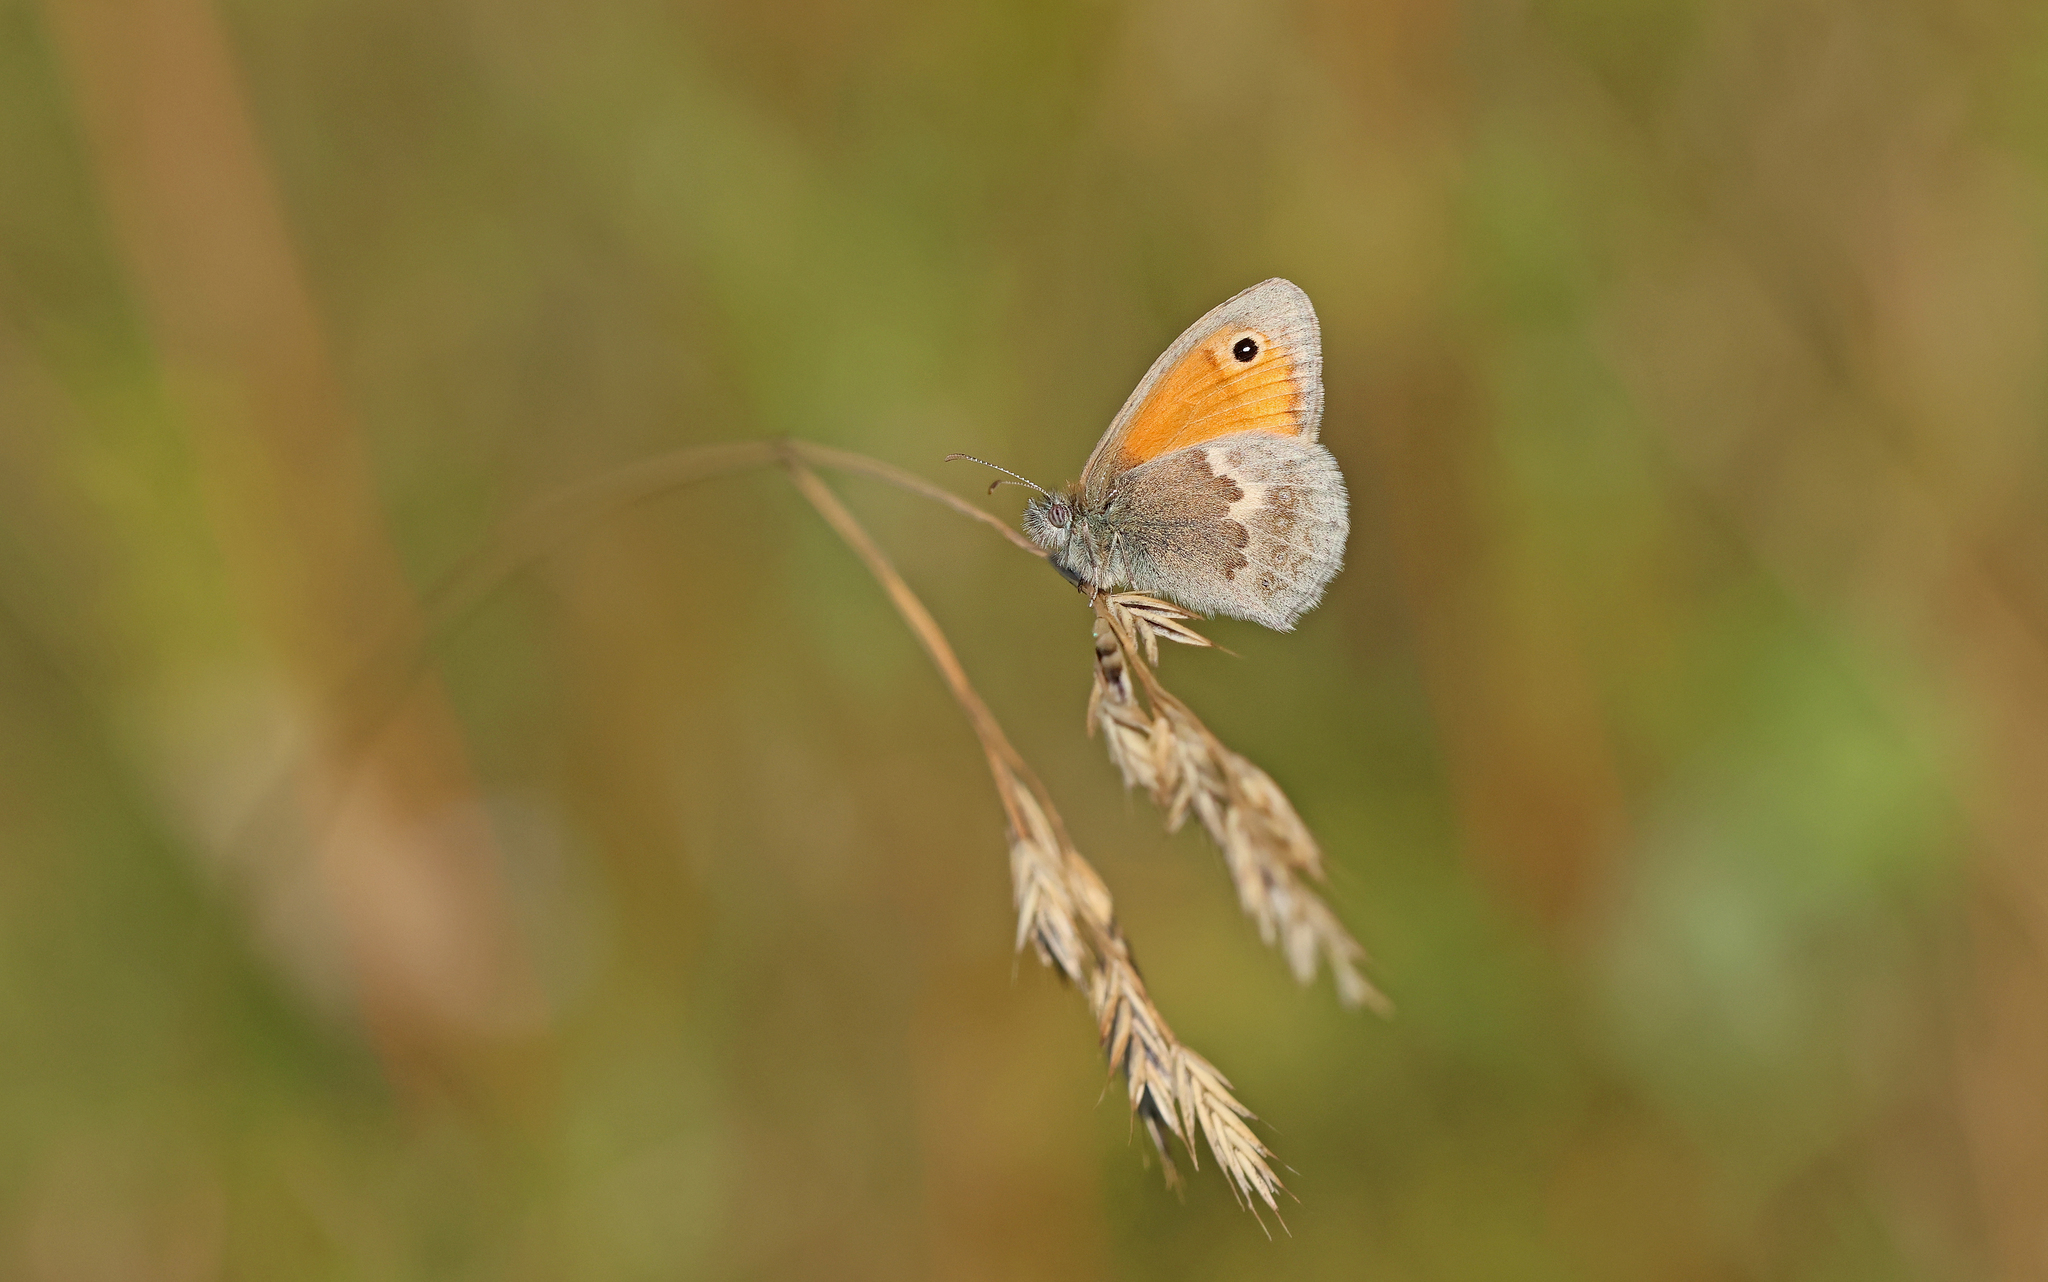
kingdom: Animalia
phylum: Arthropoda
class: Insecta
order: Lepidoptera
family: Nymphalidae
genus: Coenonympha
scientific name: Coenonympha pamphilus
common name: Small heath
